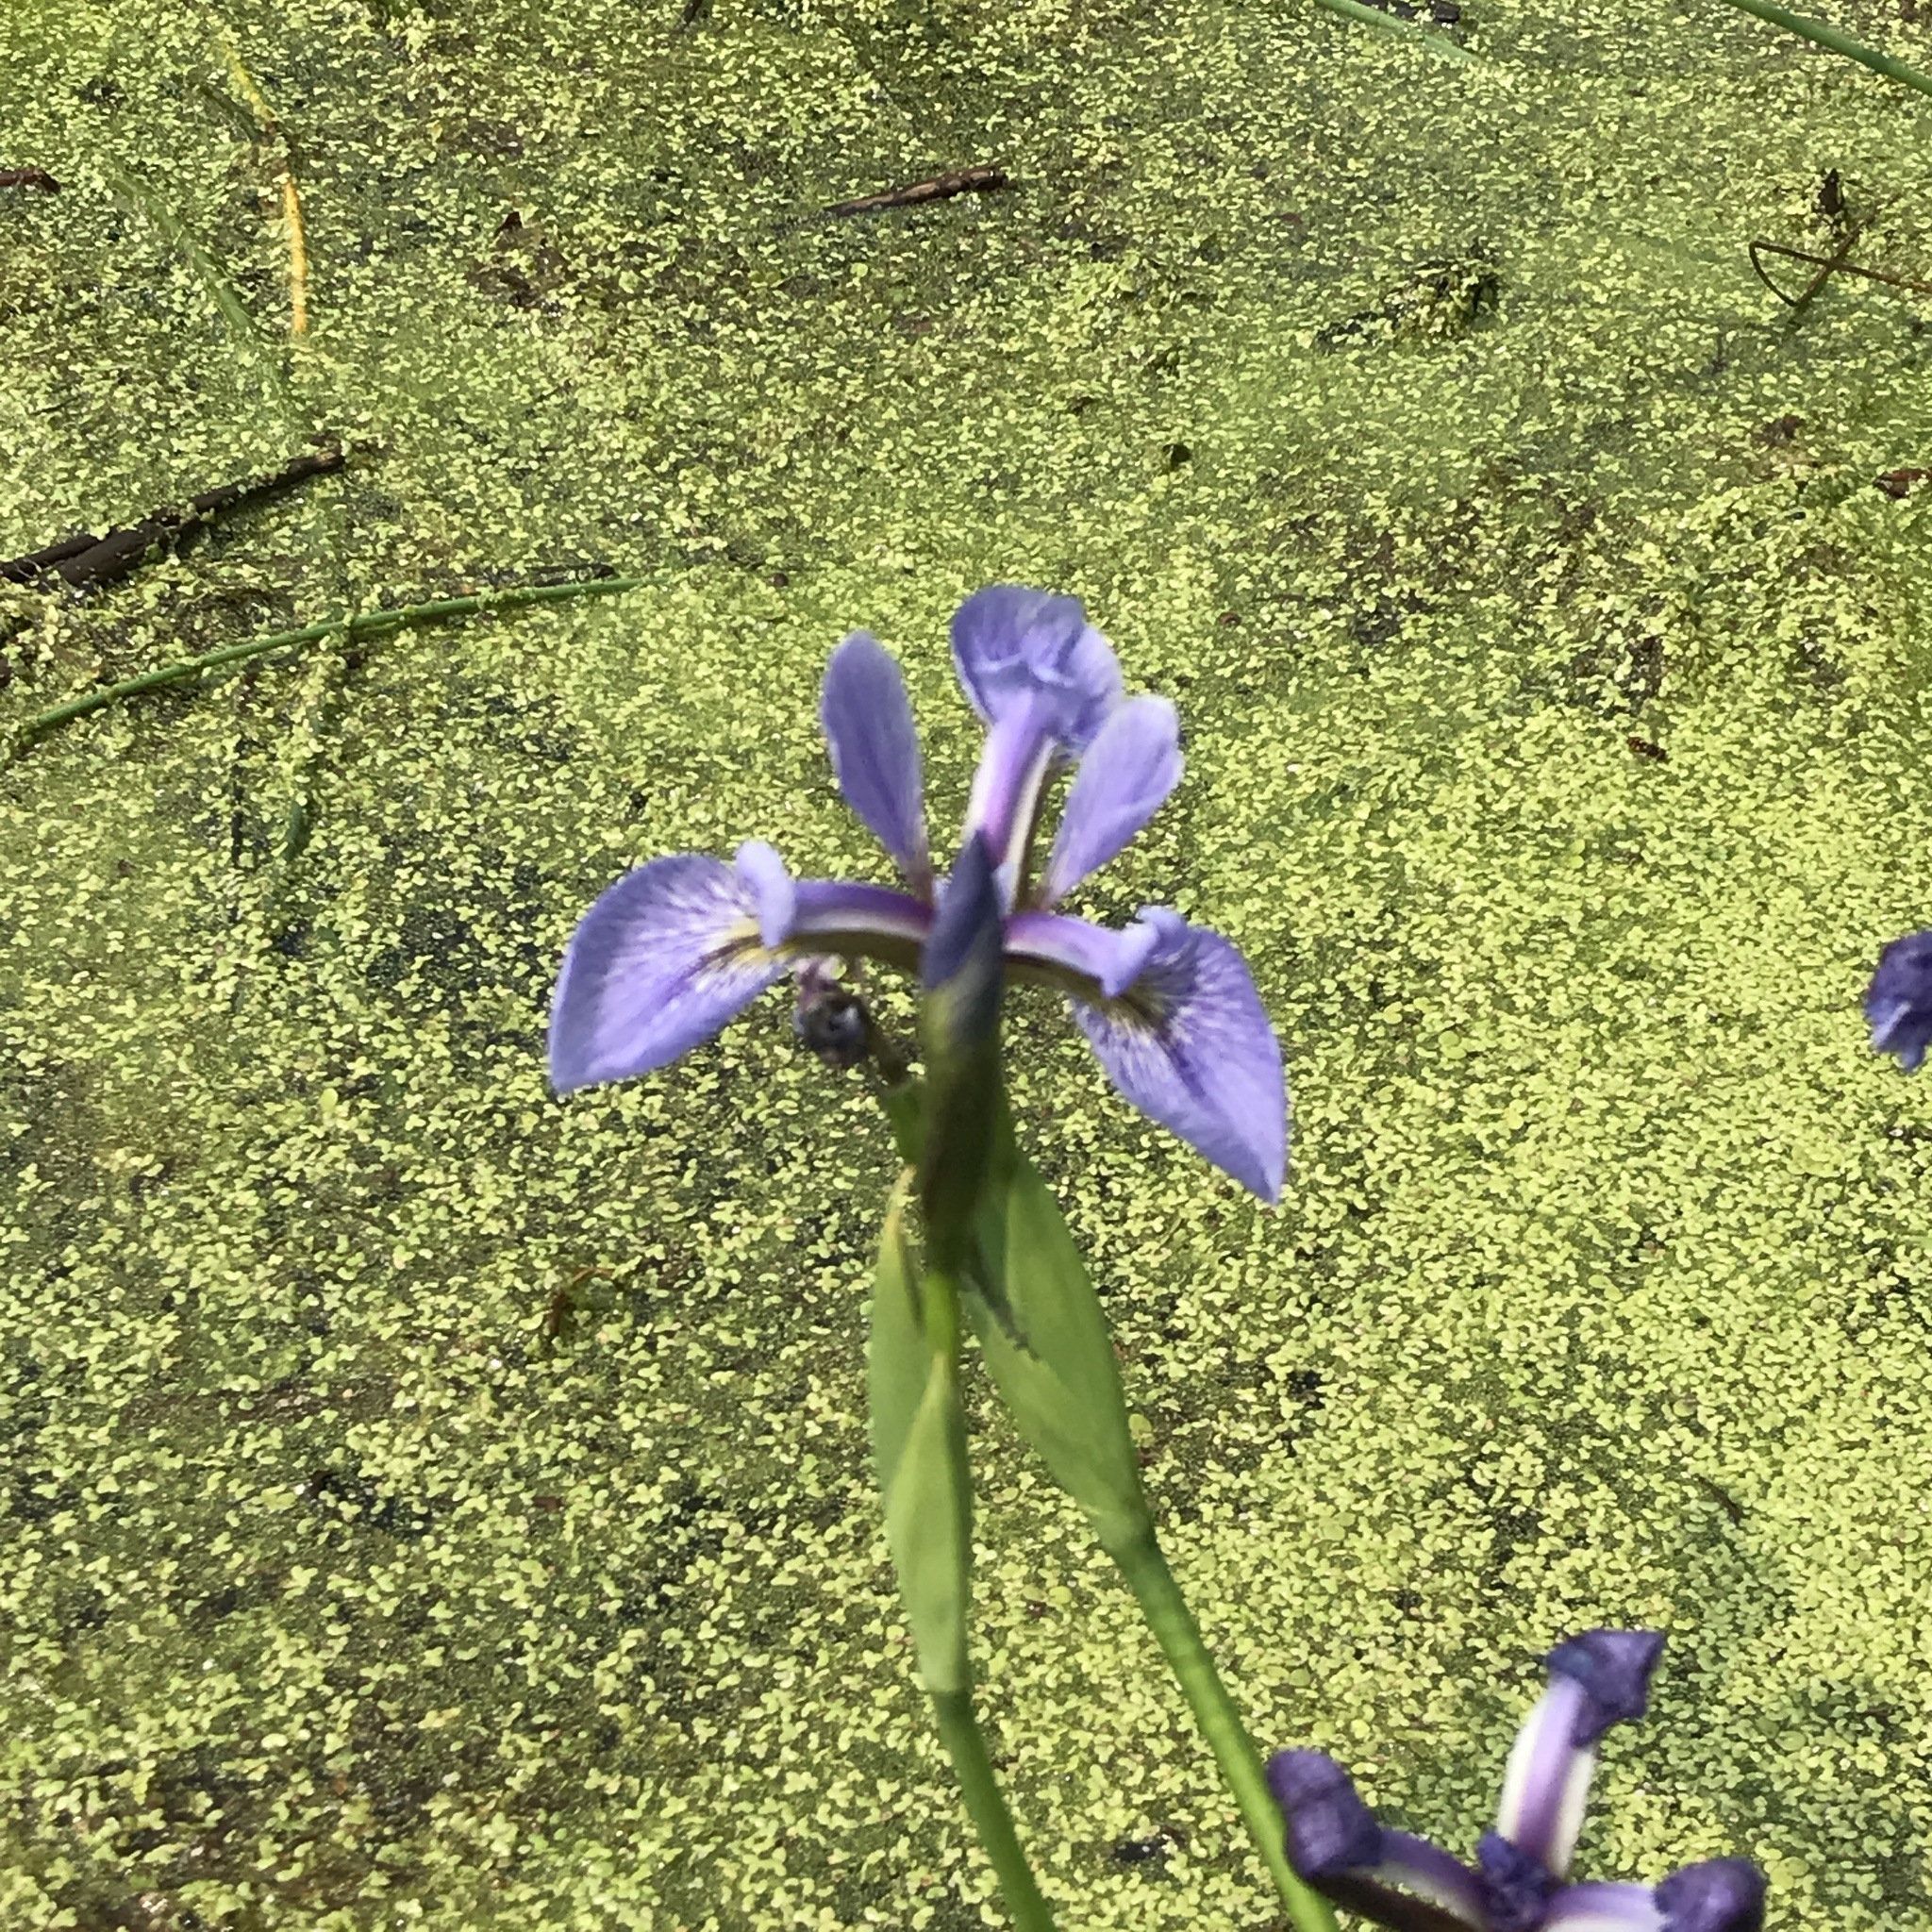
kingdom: Plantae
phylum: Tracheophyta
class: Liliopsida
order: Asparagales
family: Iridaceae
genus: Iris
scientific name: Iris versicolor
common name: Purple iris
